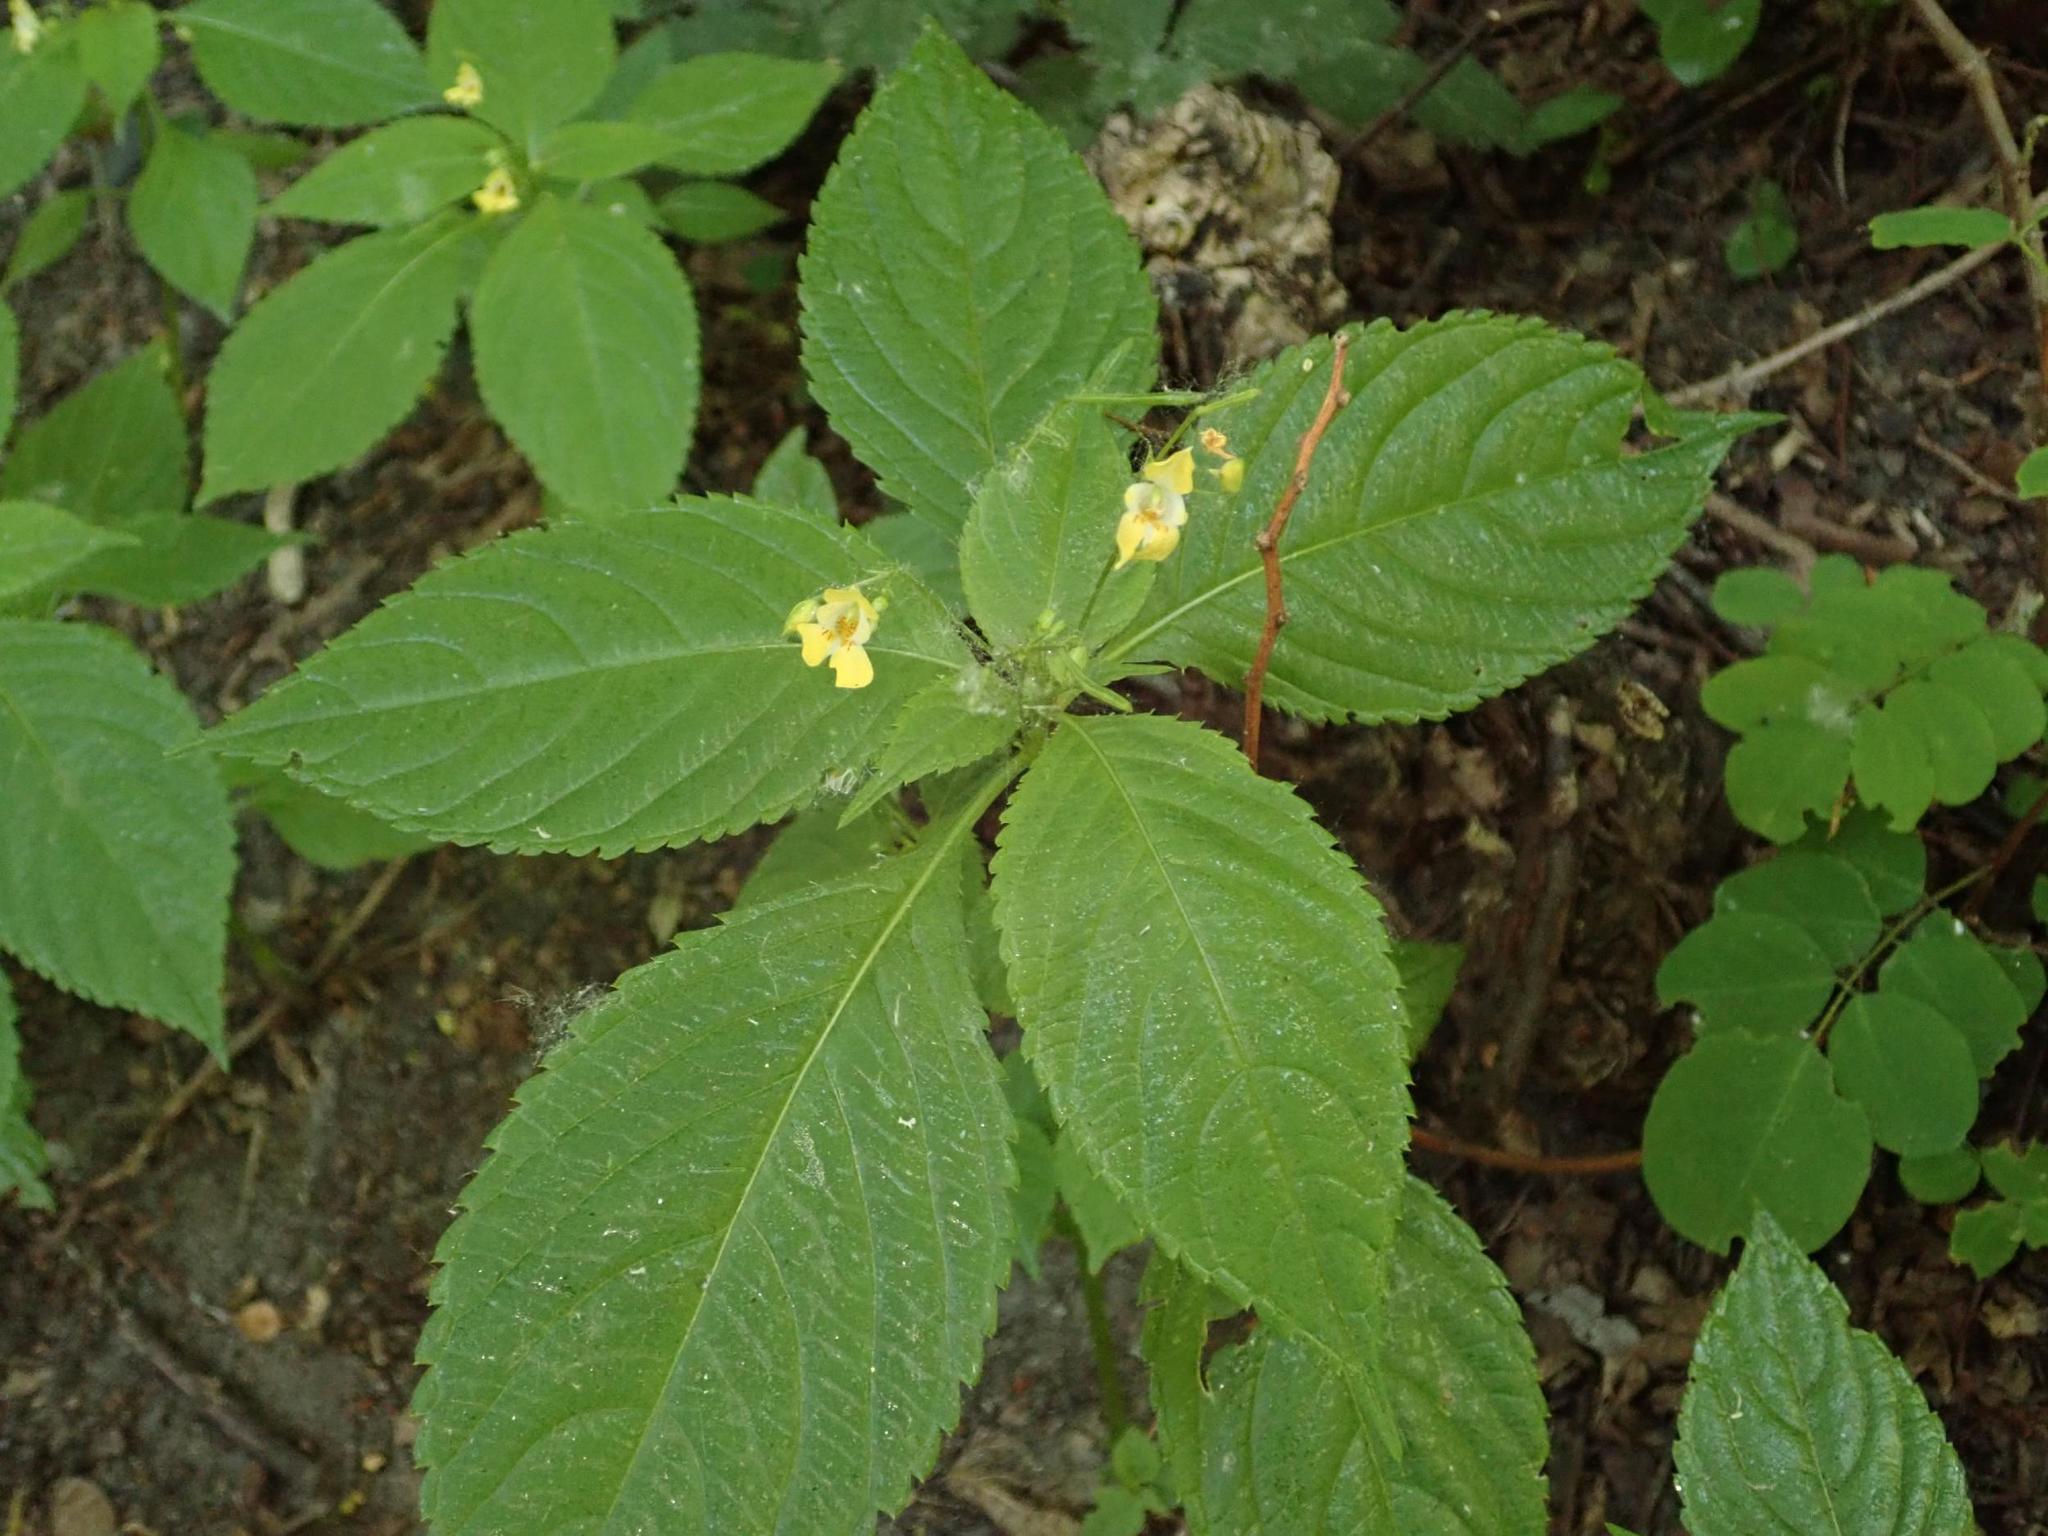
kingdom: Plantae
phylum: Tracheophyta
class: Magnoliopsida
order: Ericales
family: Balsaminaceae
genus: Impatiens
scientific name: Impatiens parviflora
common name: Small balsam
